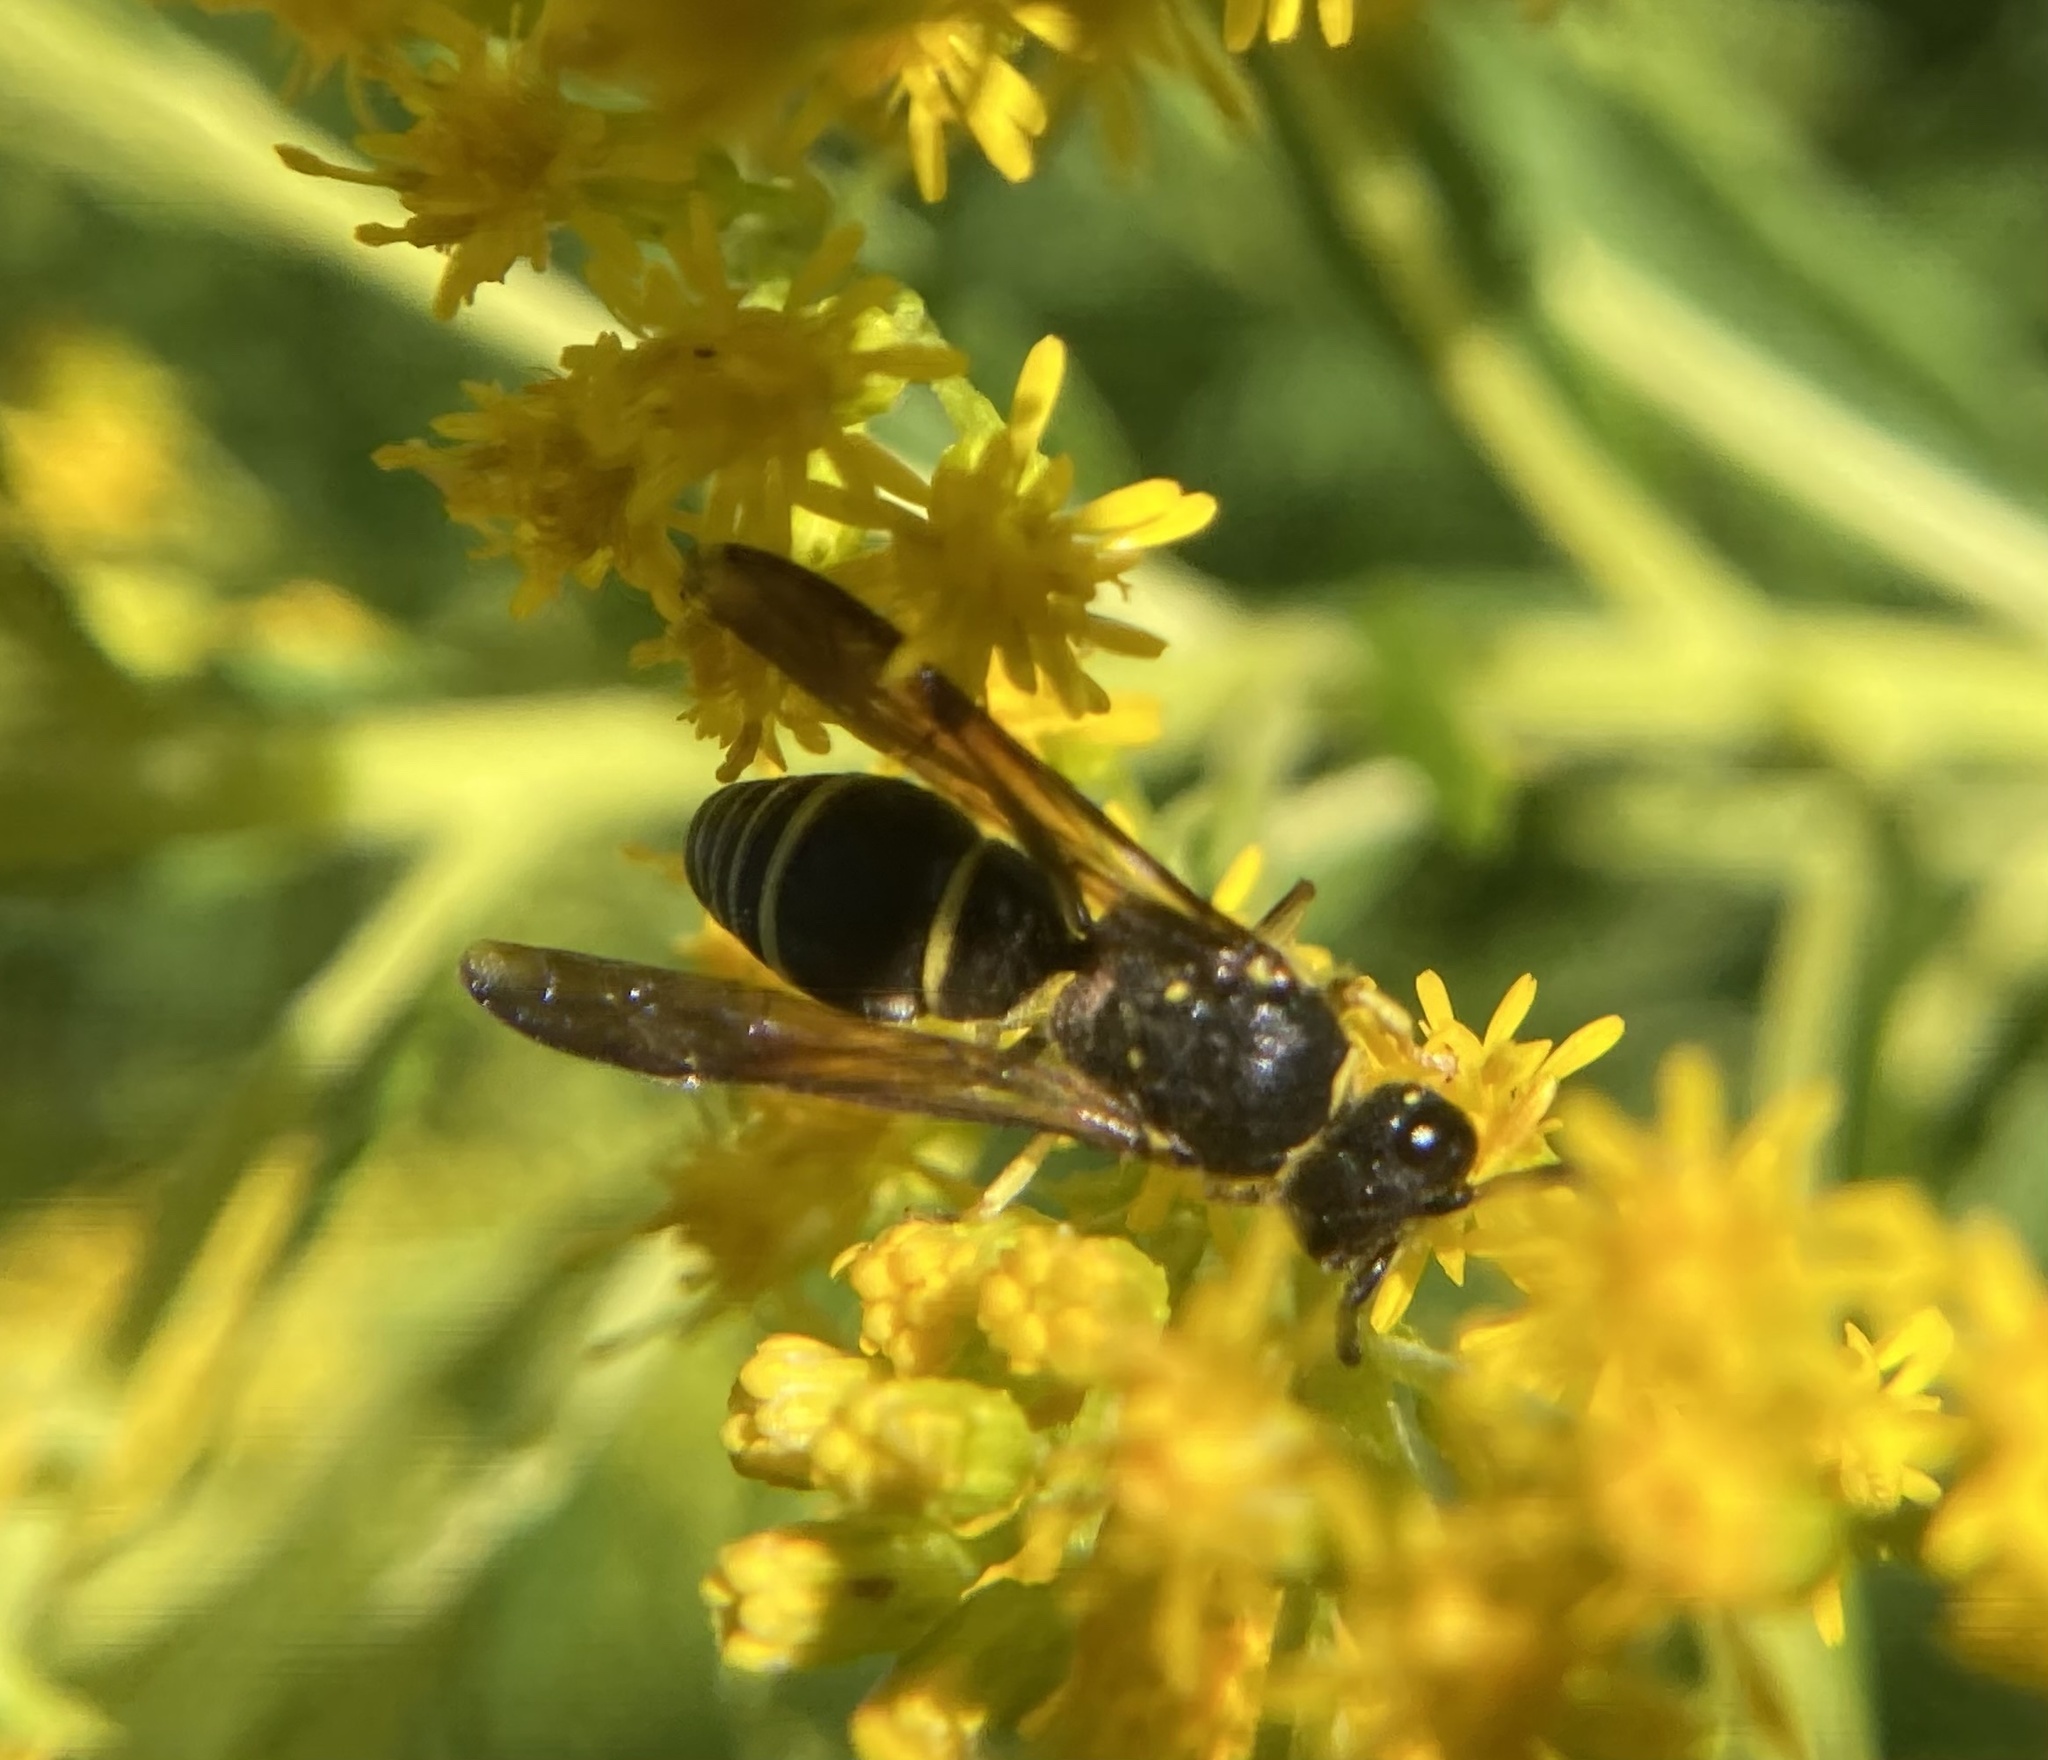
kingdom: Animalia
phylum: Arthropoda
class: Insecta
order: Hymenoptera
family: Vespidae
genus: Ancistrocerus
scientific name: Ancistrocerus
